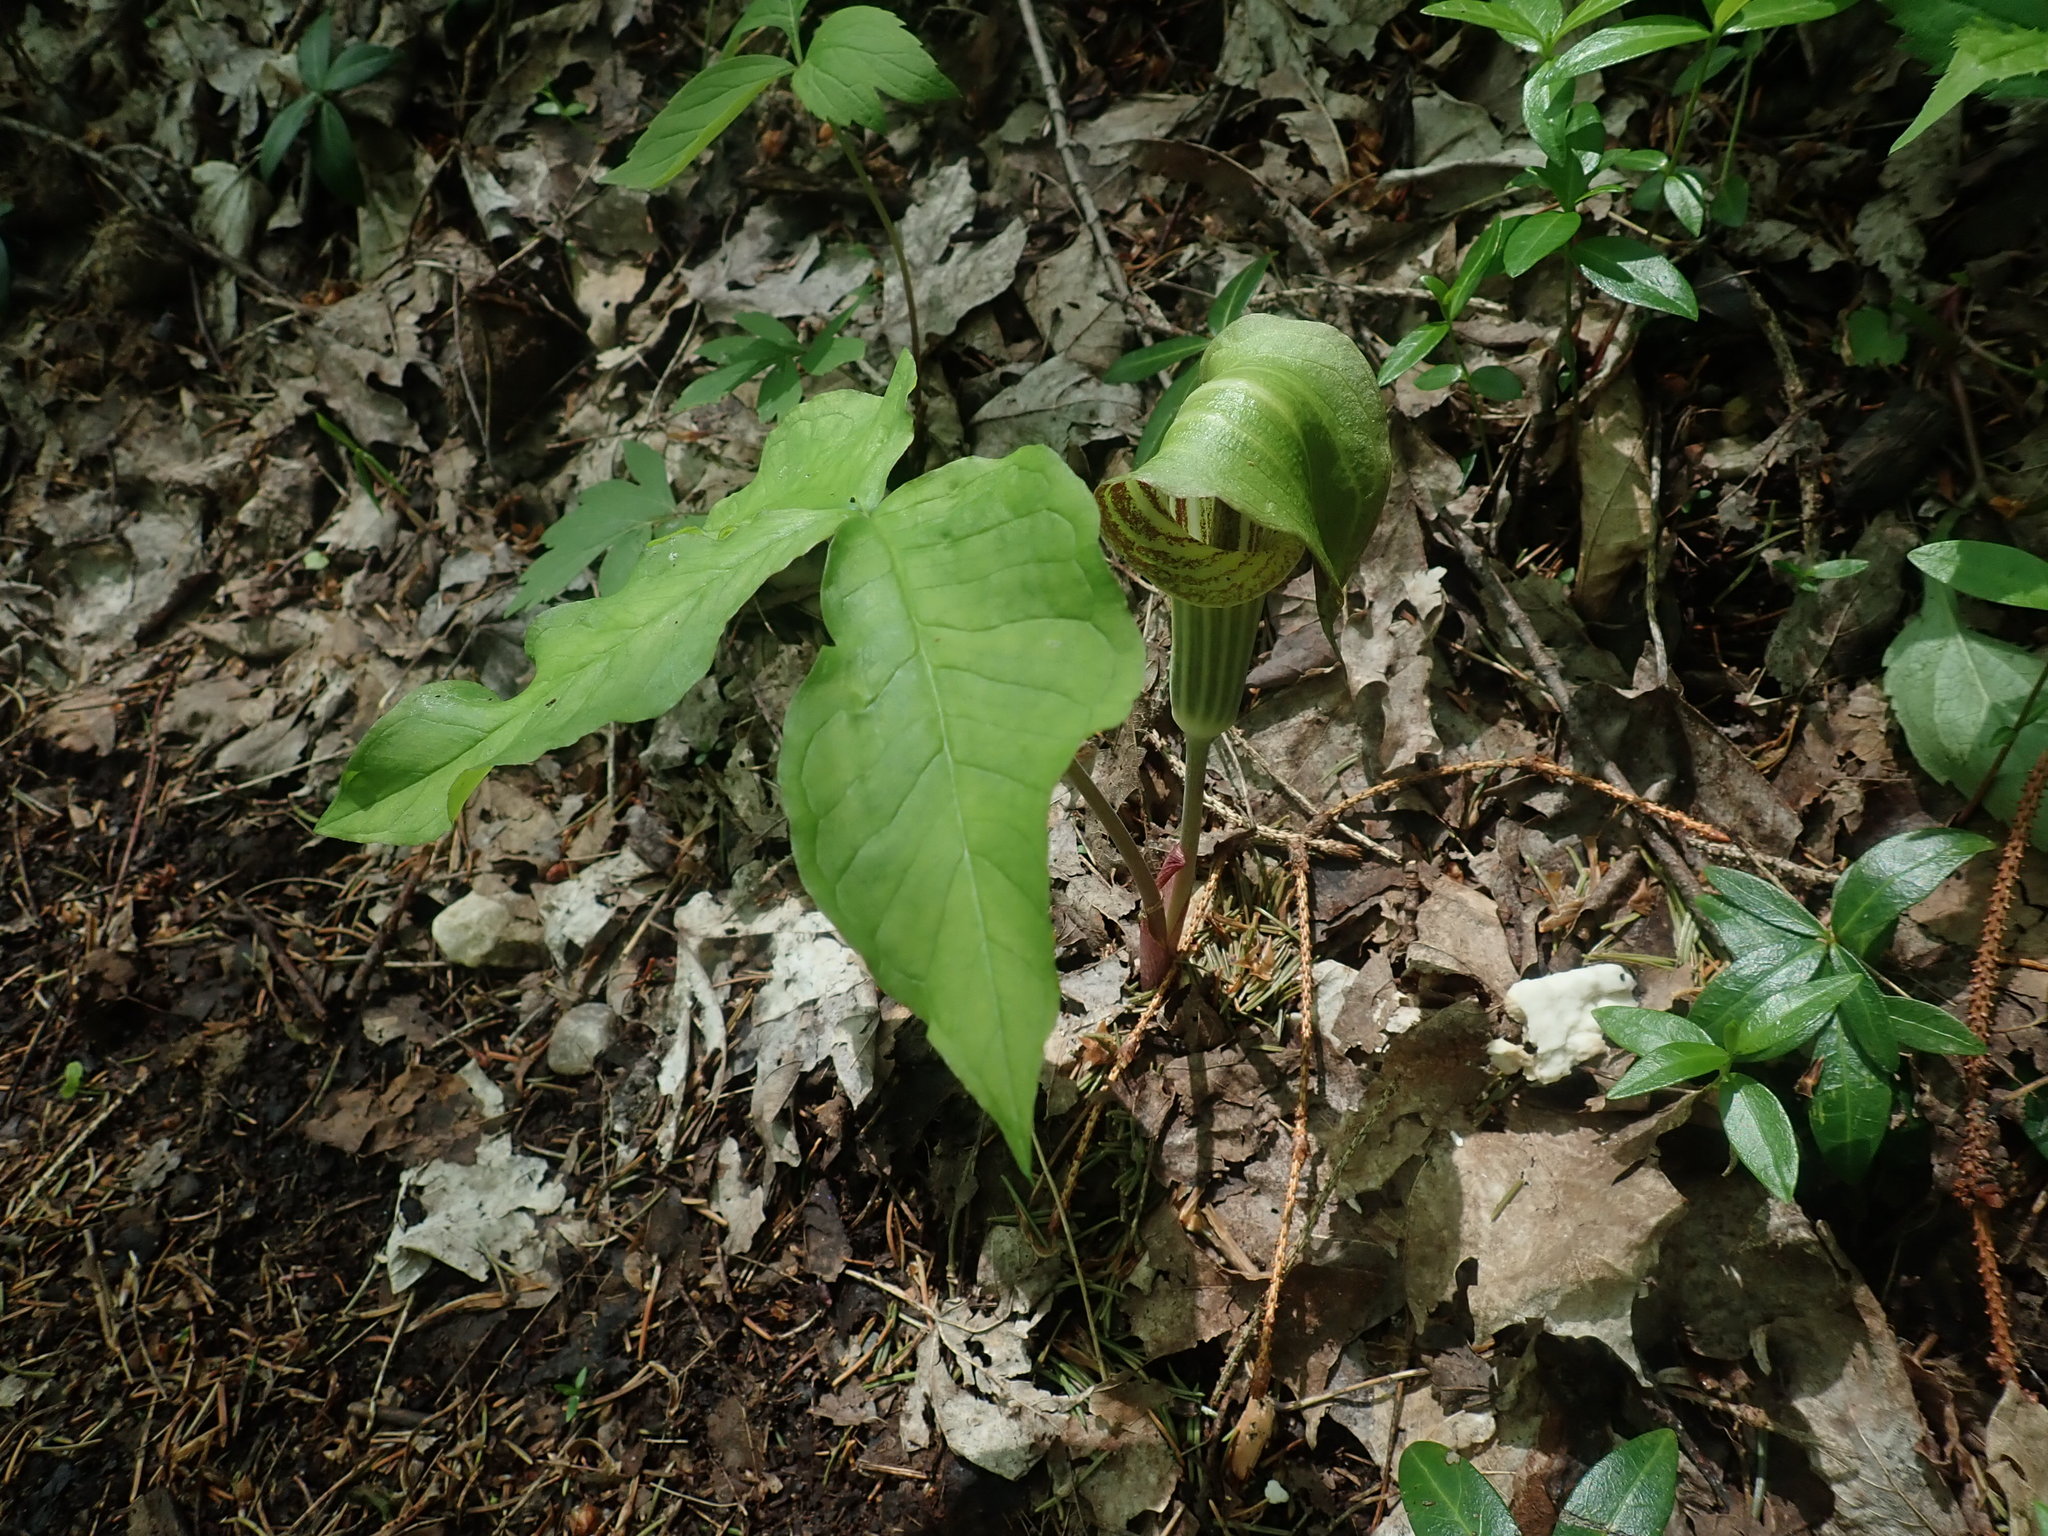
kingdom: Plantae
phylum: Tracheophyta
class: Liliopsida
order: Alismatales
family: Araceae
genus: Arisaema
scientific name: Arisaema triphyllum
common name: Jack-in-the-pulpit
